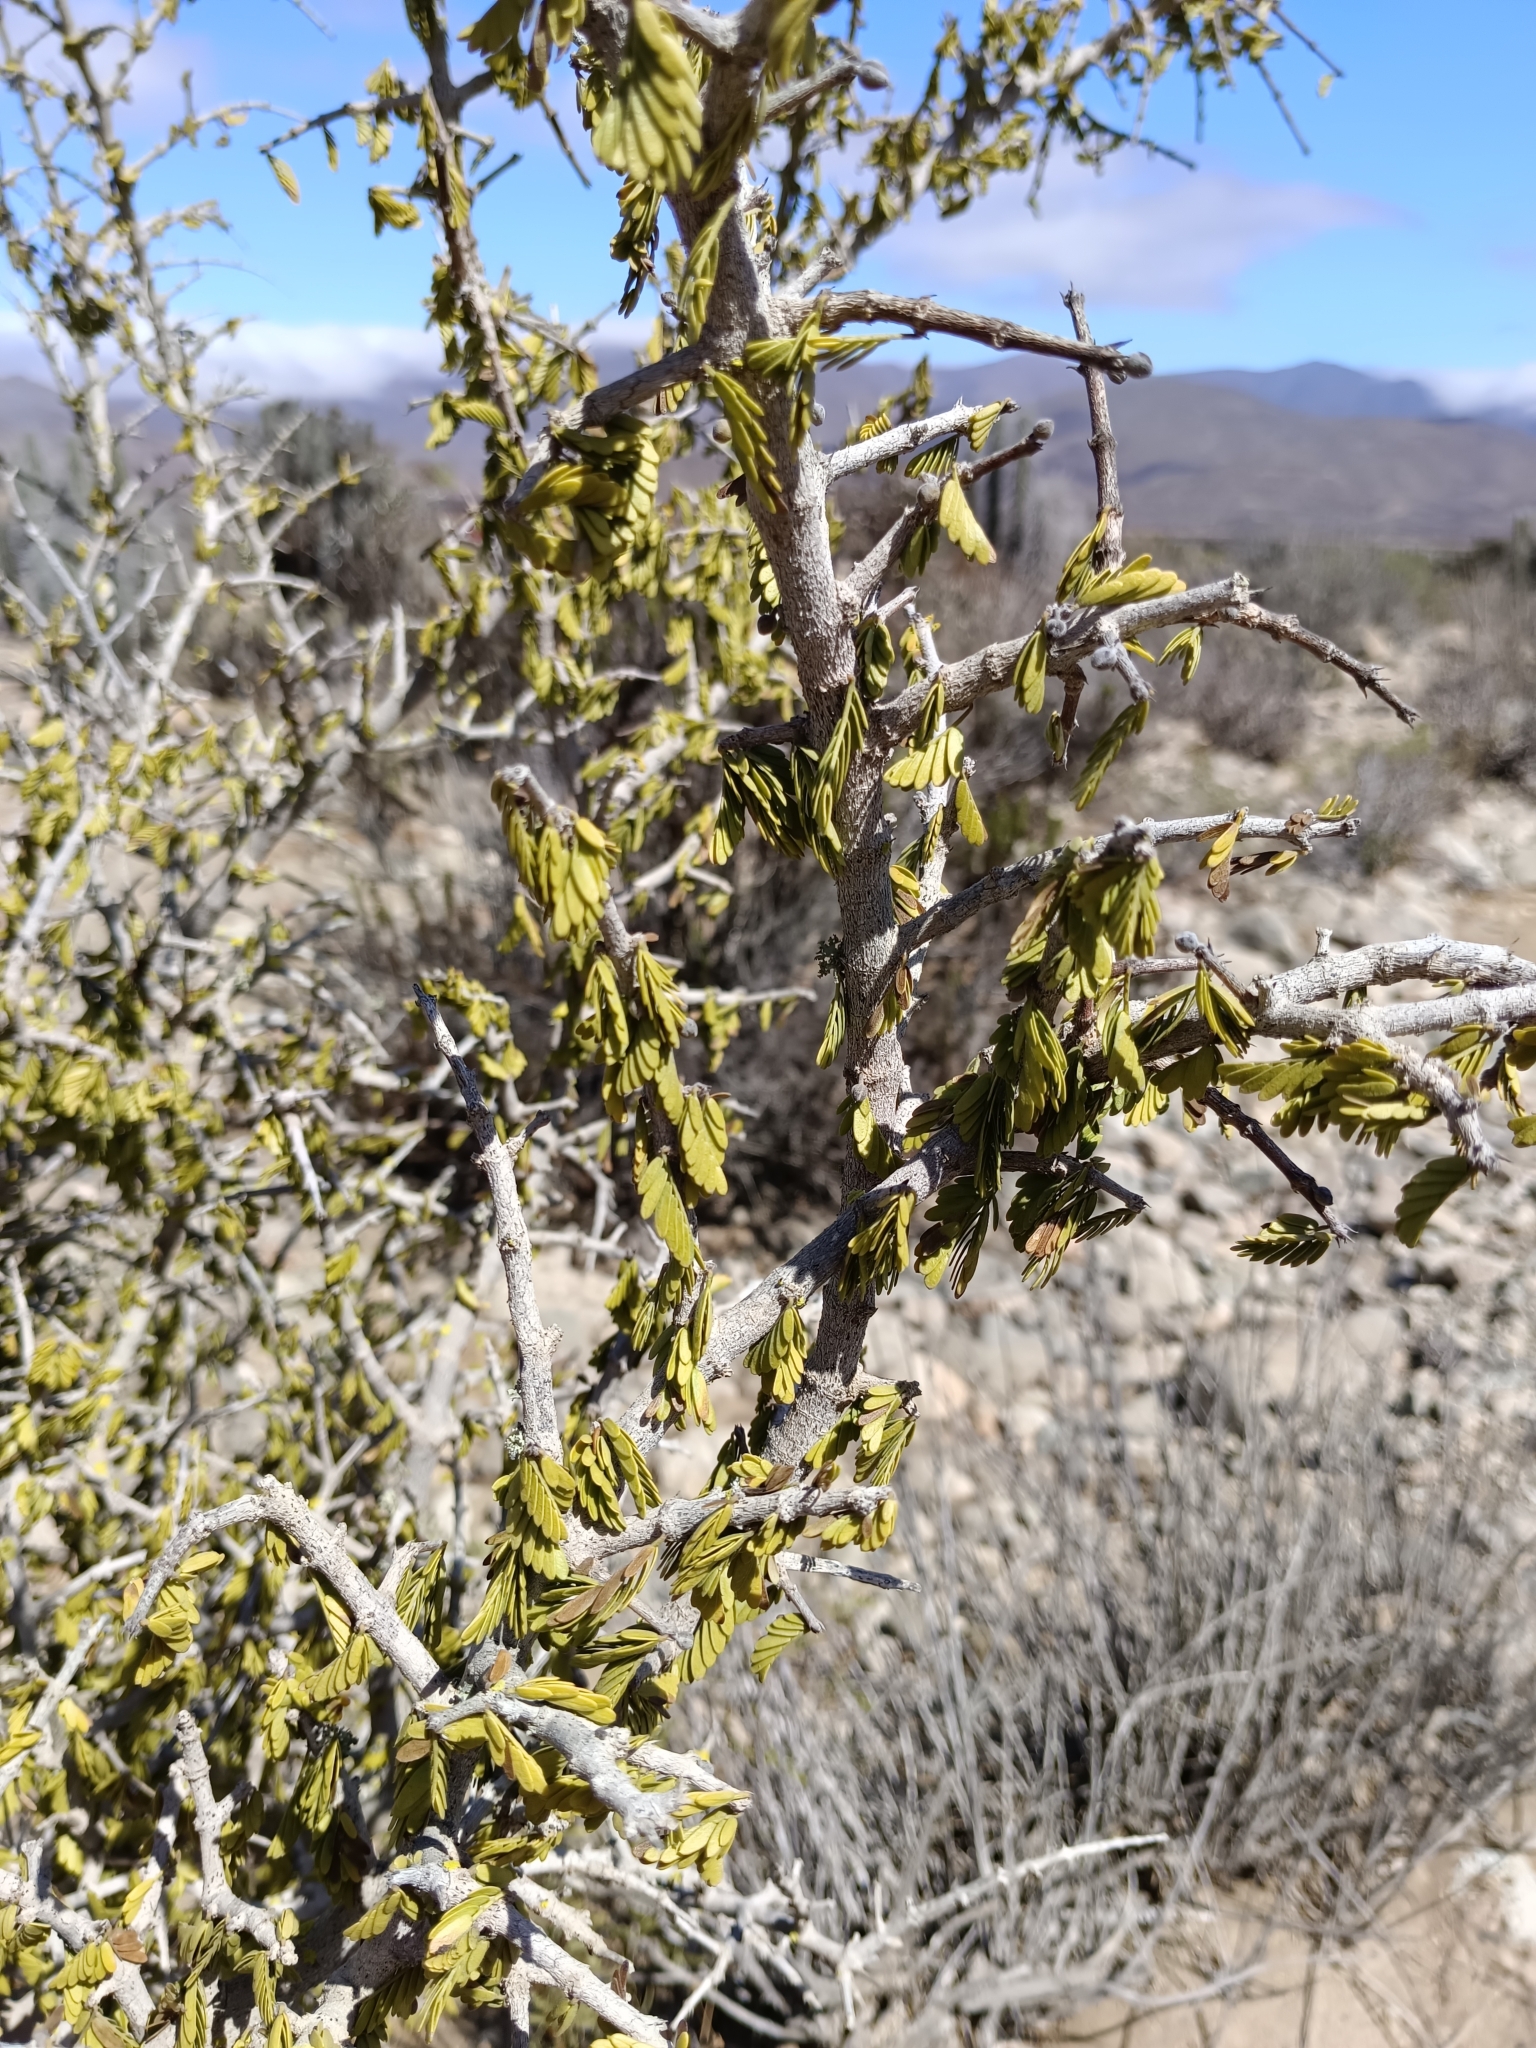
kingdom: Plantae
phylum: Tracheophyta
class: Magnoliopsida
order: Zygophyllales
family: Zygophyllaceae
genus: Porlieria
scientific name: Porlieria chilensis
